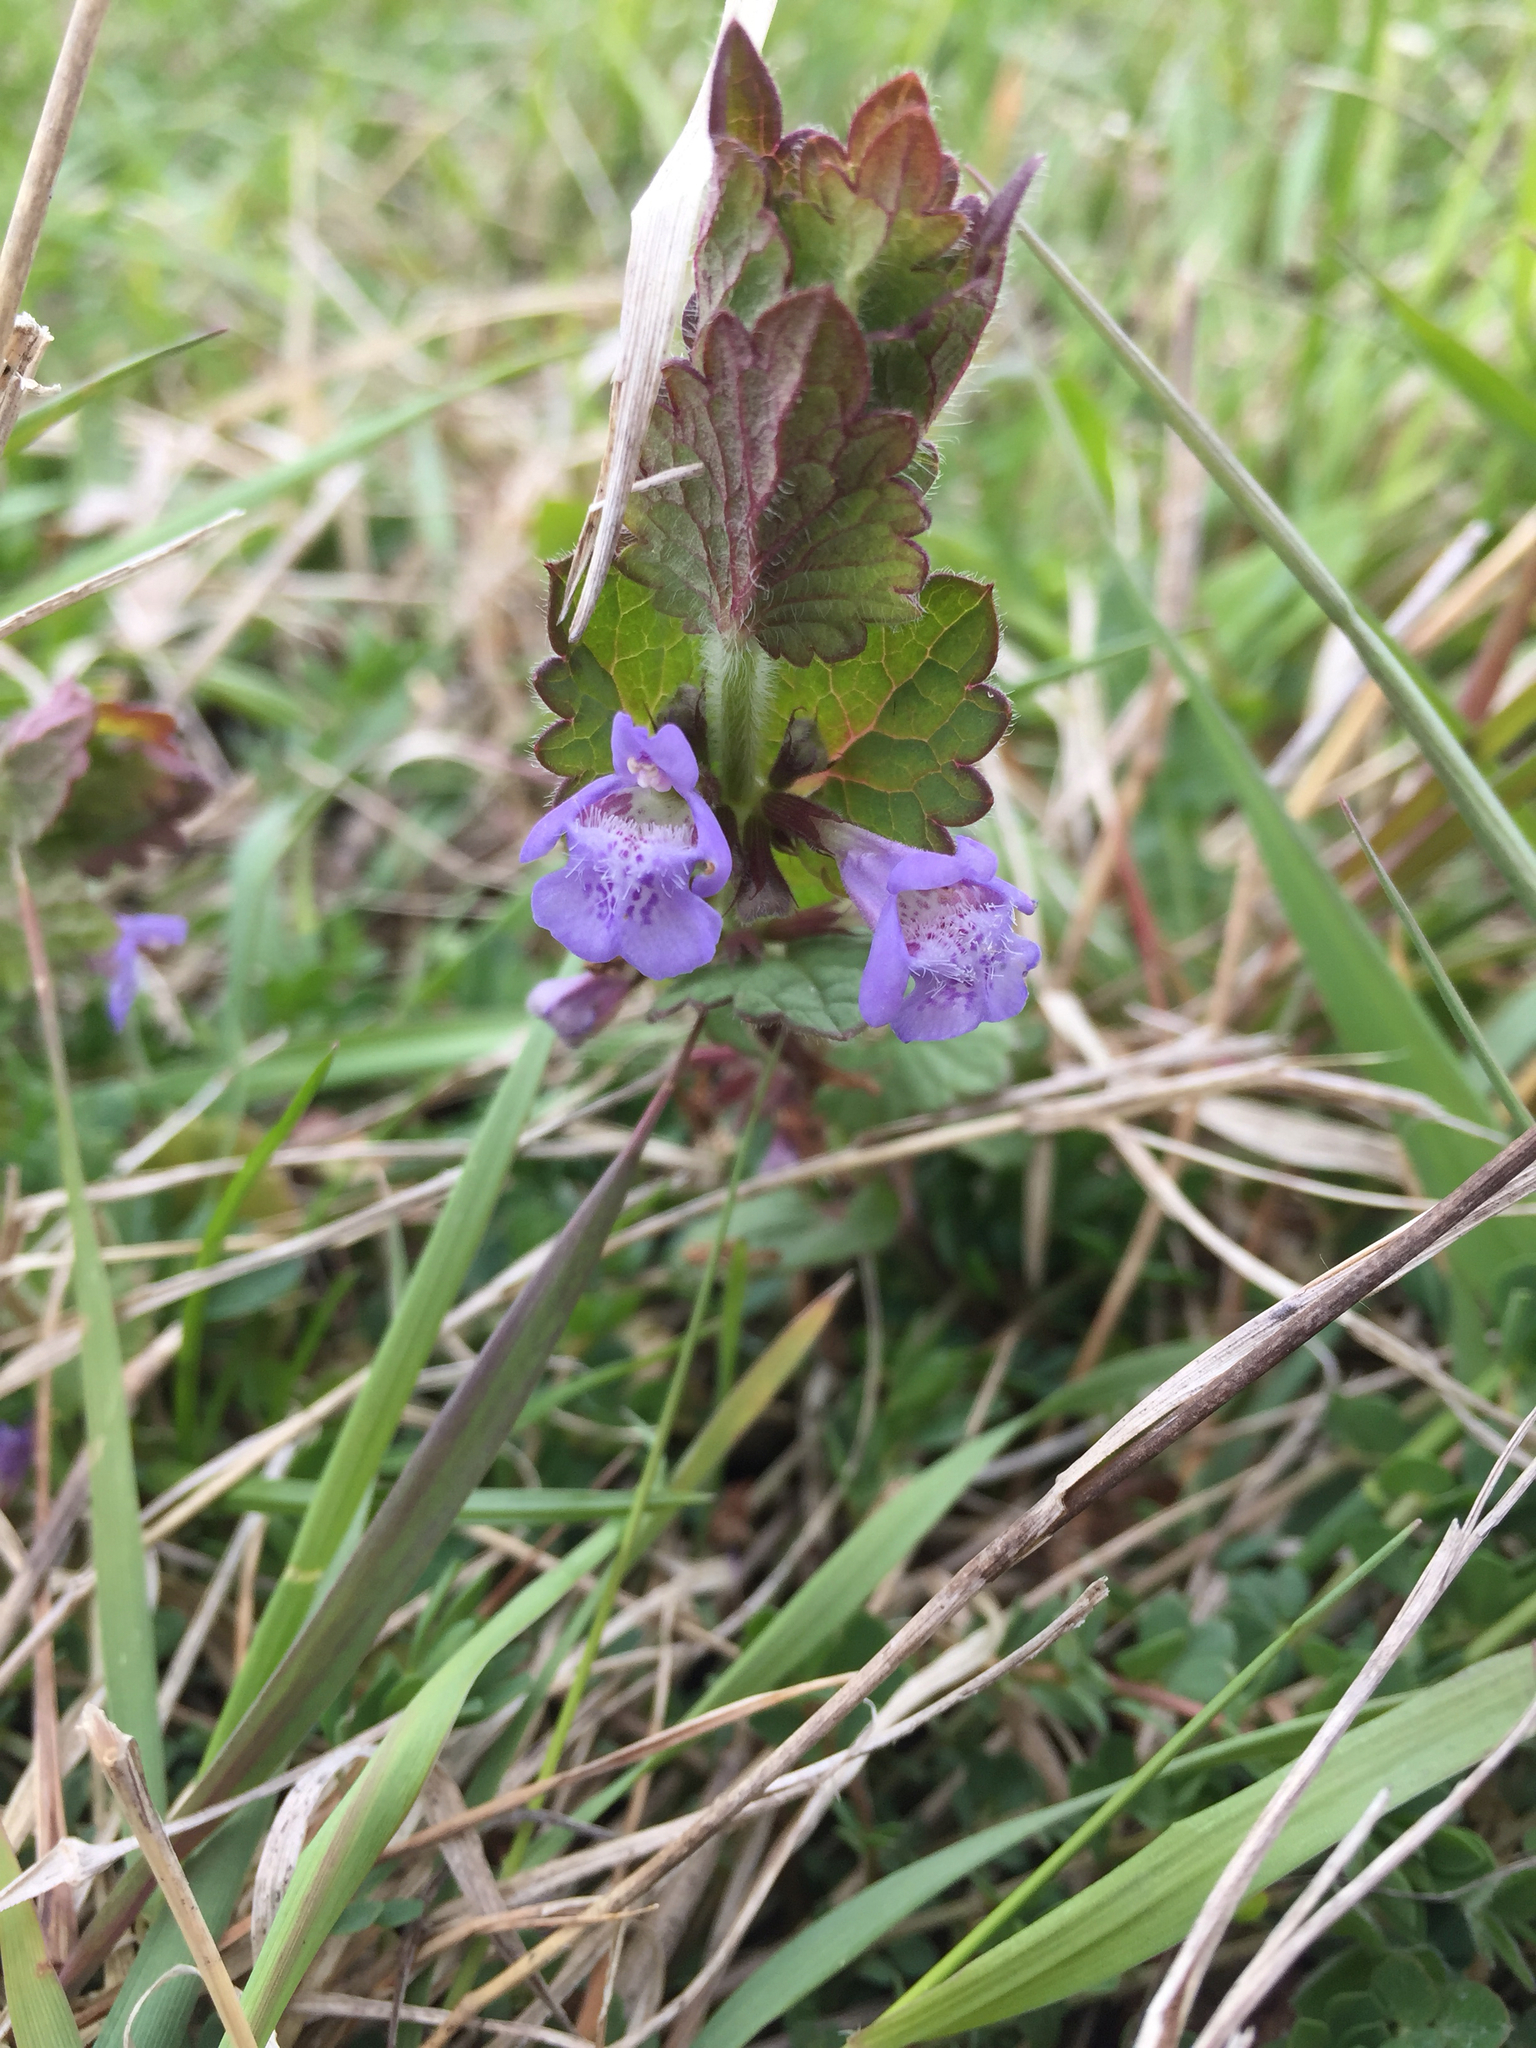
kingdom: Plantae
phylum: Tracheophyta
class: Magnoliopsida
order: Lamiales
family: Lamiaceae
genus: Glechoma
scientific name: Glechoma hirsuta
